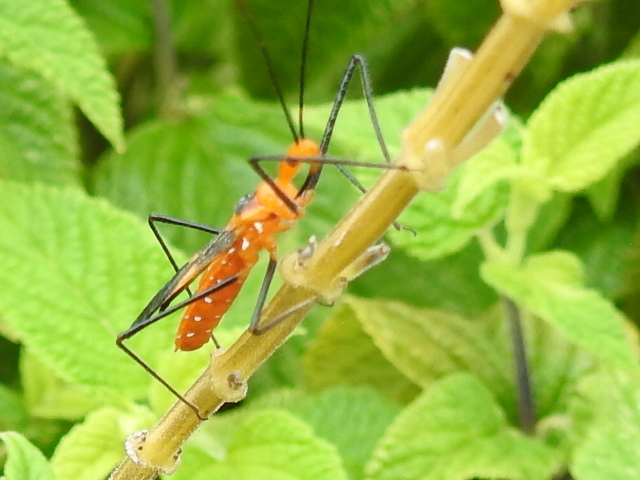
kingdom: Animalia
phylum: Arthropoda
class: Insecta
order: Hemiptera
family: Reduviidae
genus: Zelus
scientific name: Zelus longipes
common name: Milkweed assassin bug
